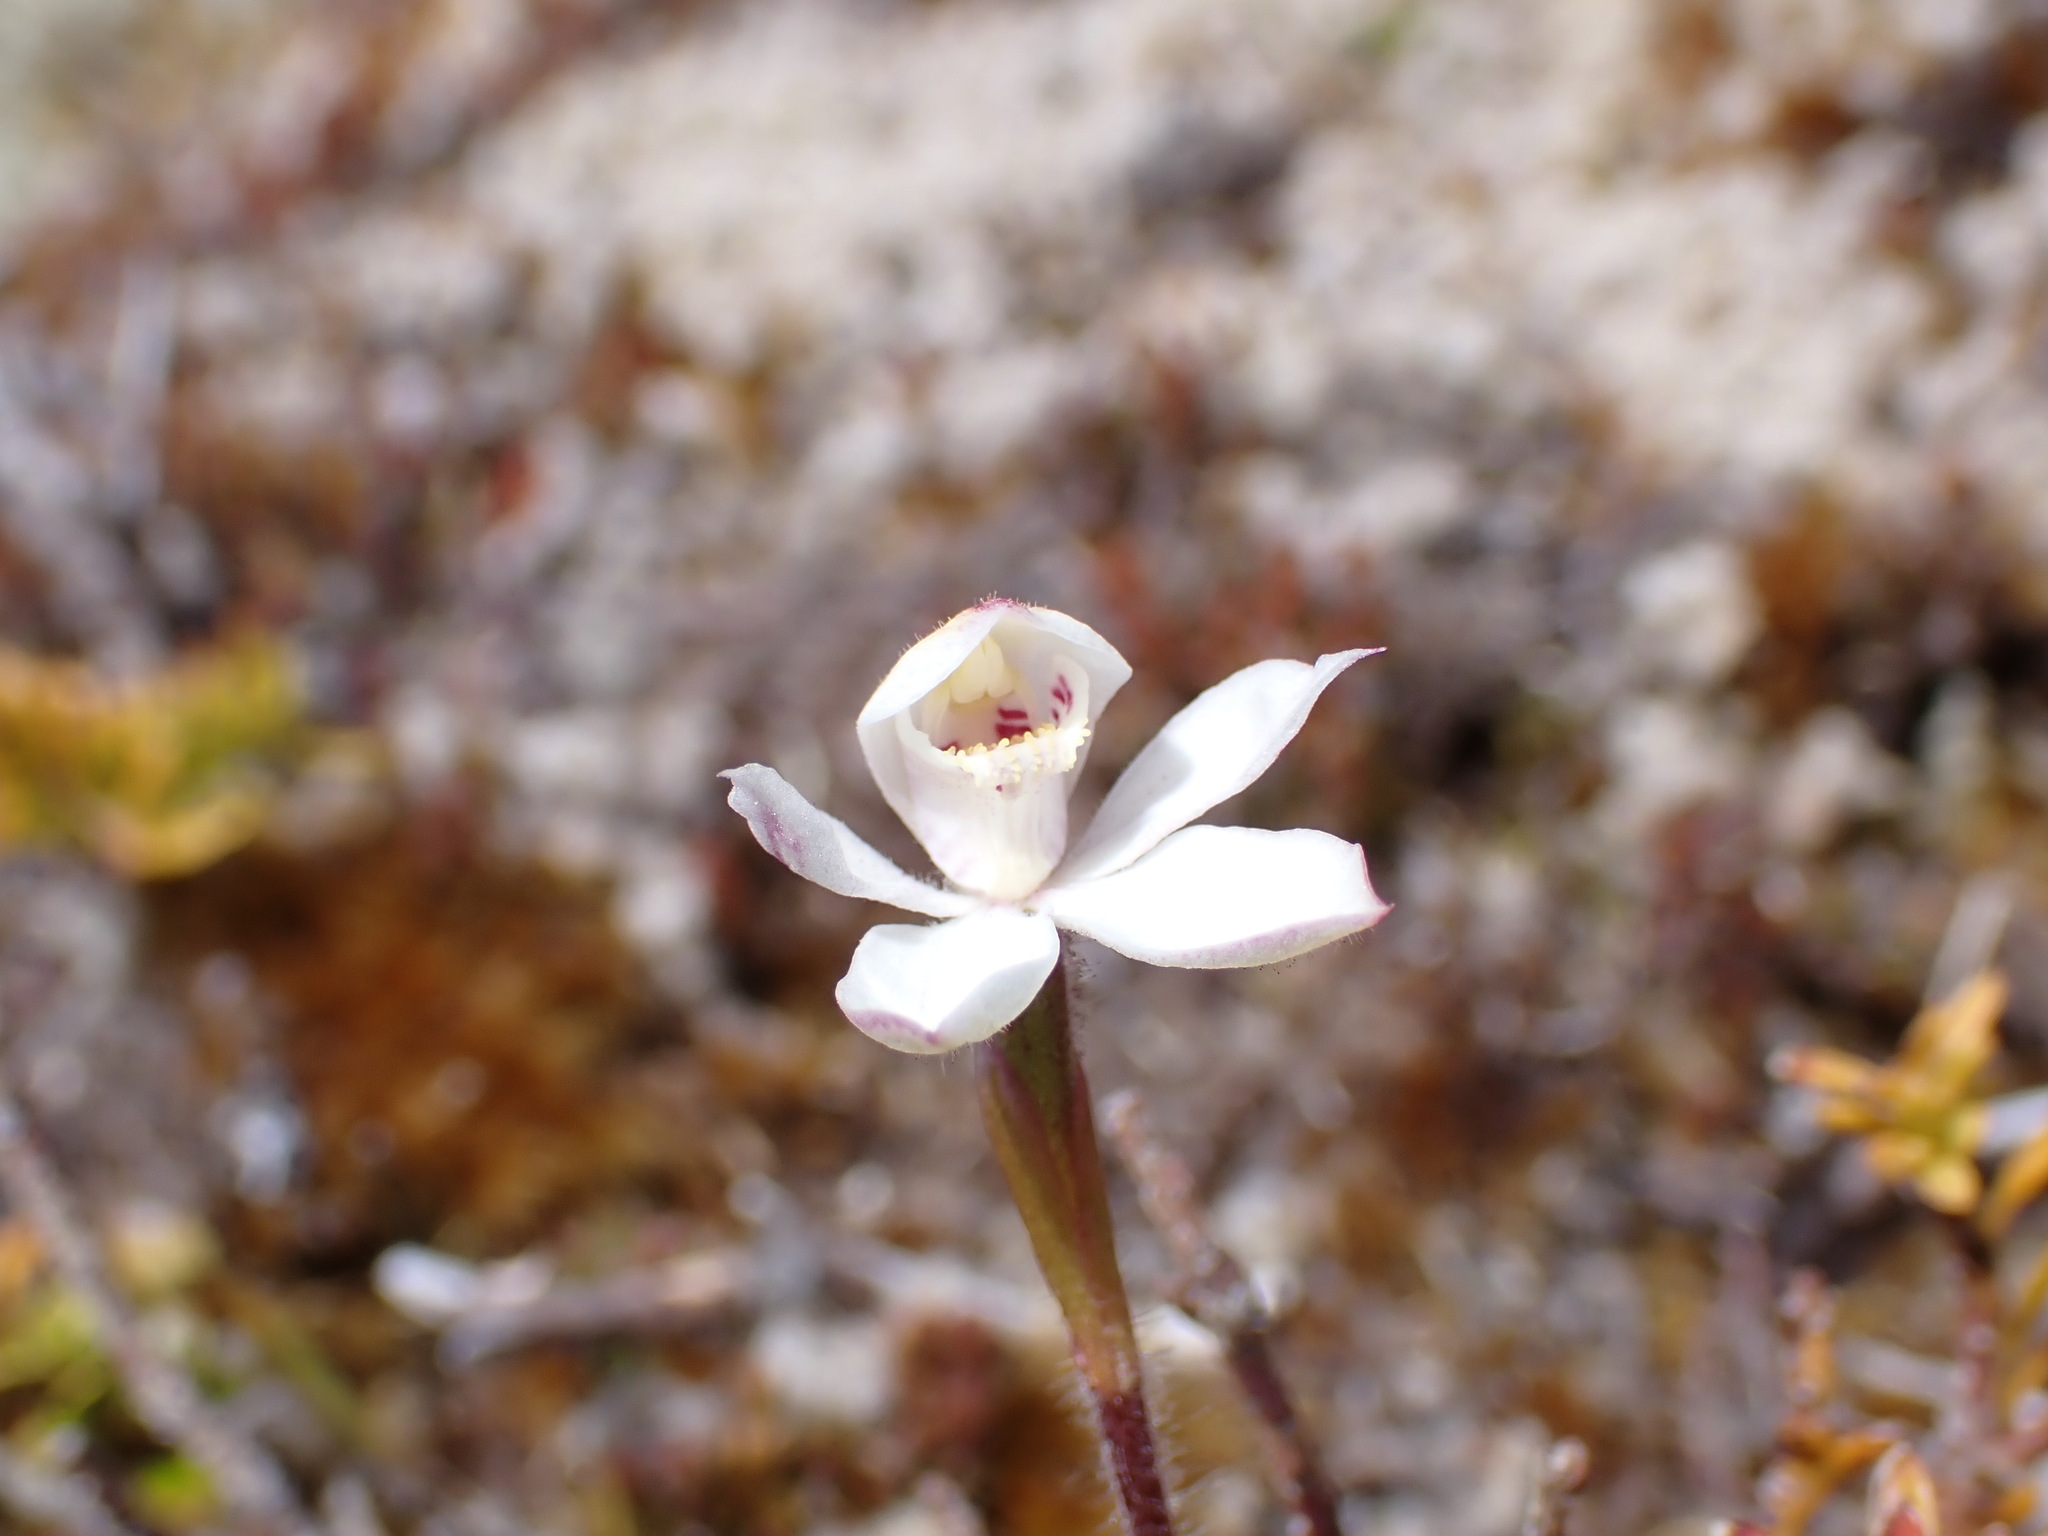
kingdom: Plantae
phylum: Tracheophyta
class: Liliopsida
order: Asparagales
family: Orchidaceae
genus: Caladenia
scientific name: Caladenia lyallii
